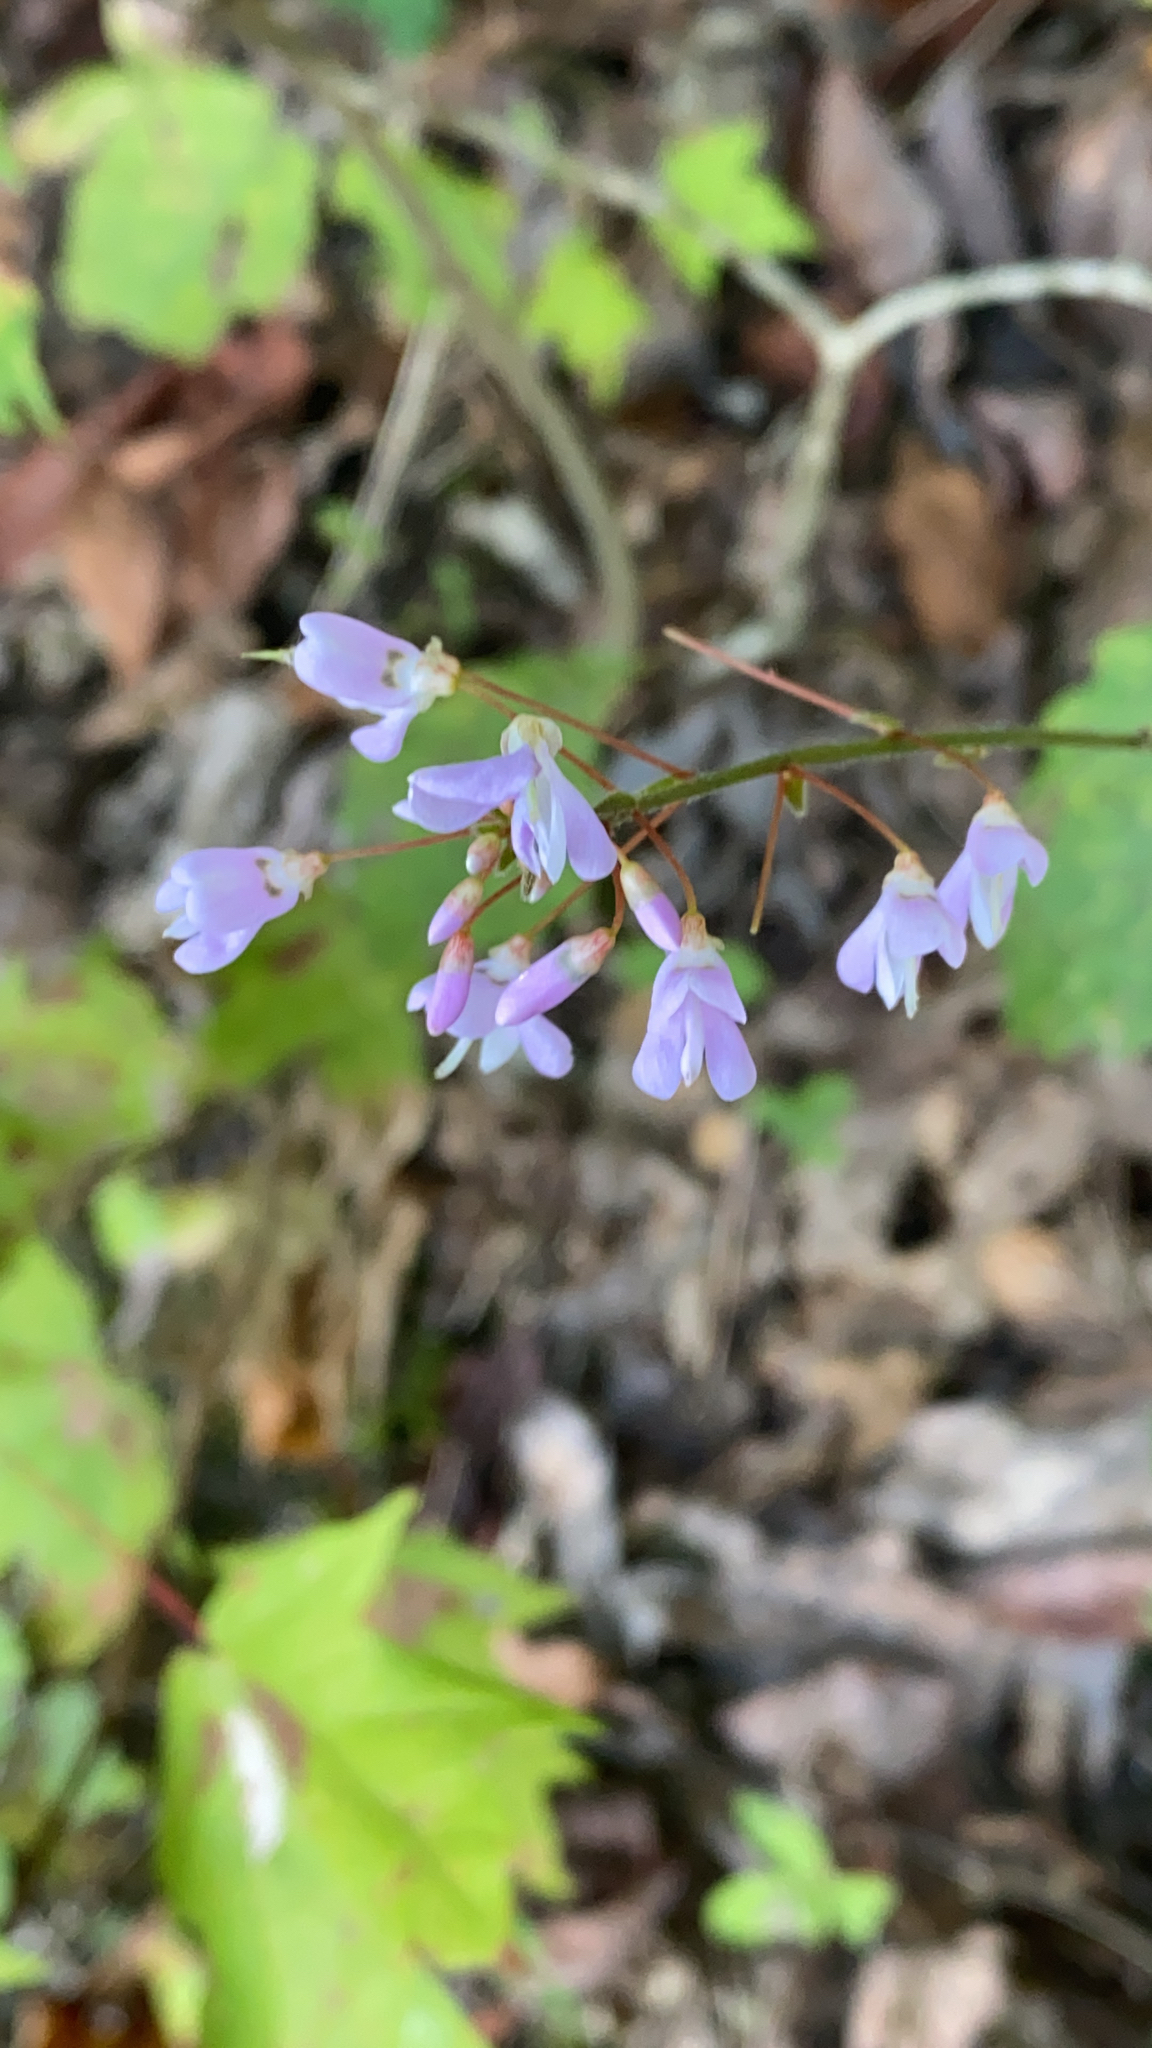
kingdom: Plantae
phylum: Tracheophyta
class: Magnoliopsida
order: Fabales
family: Fabaceae
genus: Hylodesmum
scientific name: Hylodesmum nudiflorum
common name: Bare-stemmed tick-trefoil
